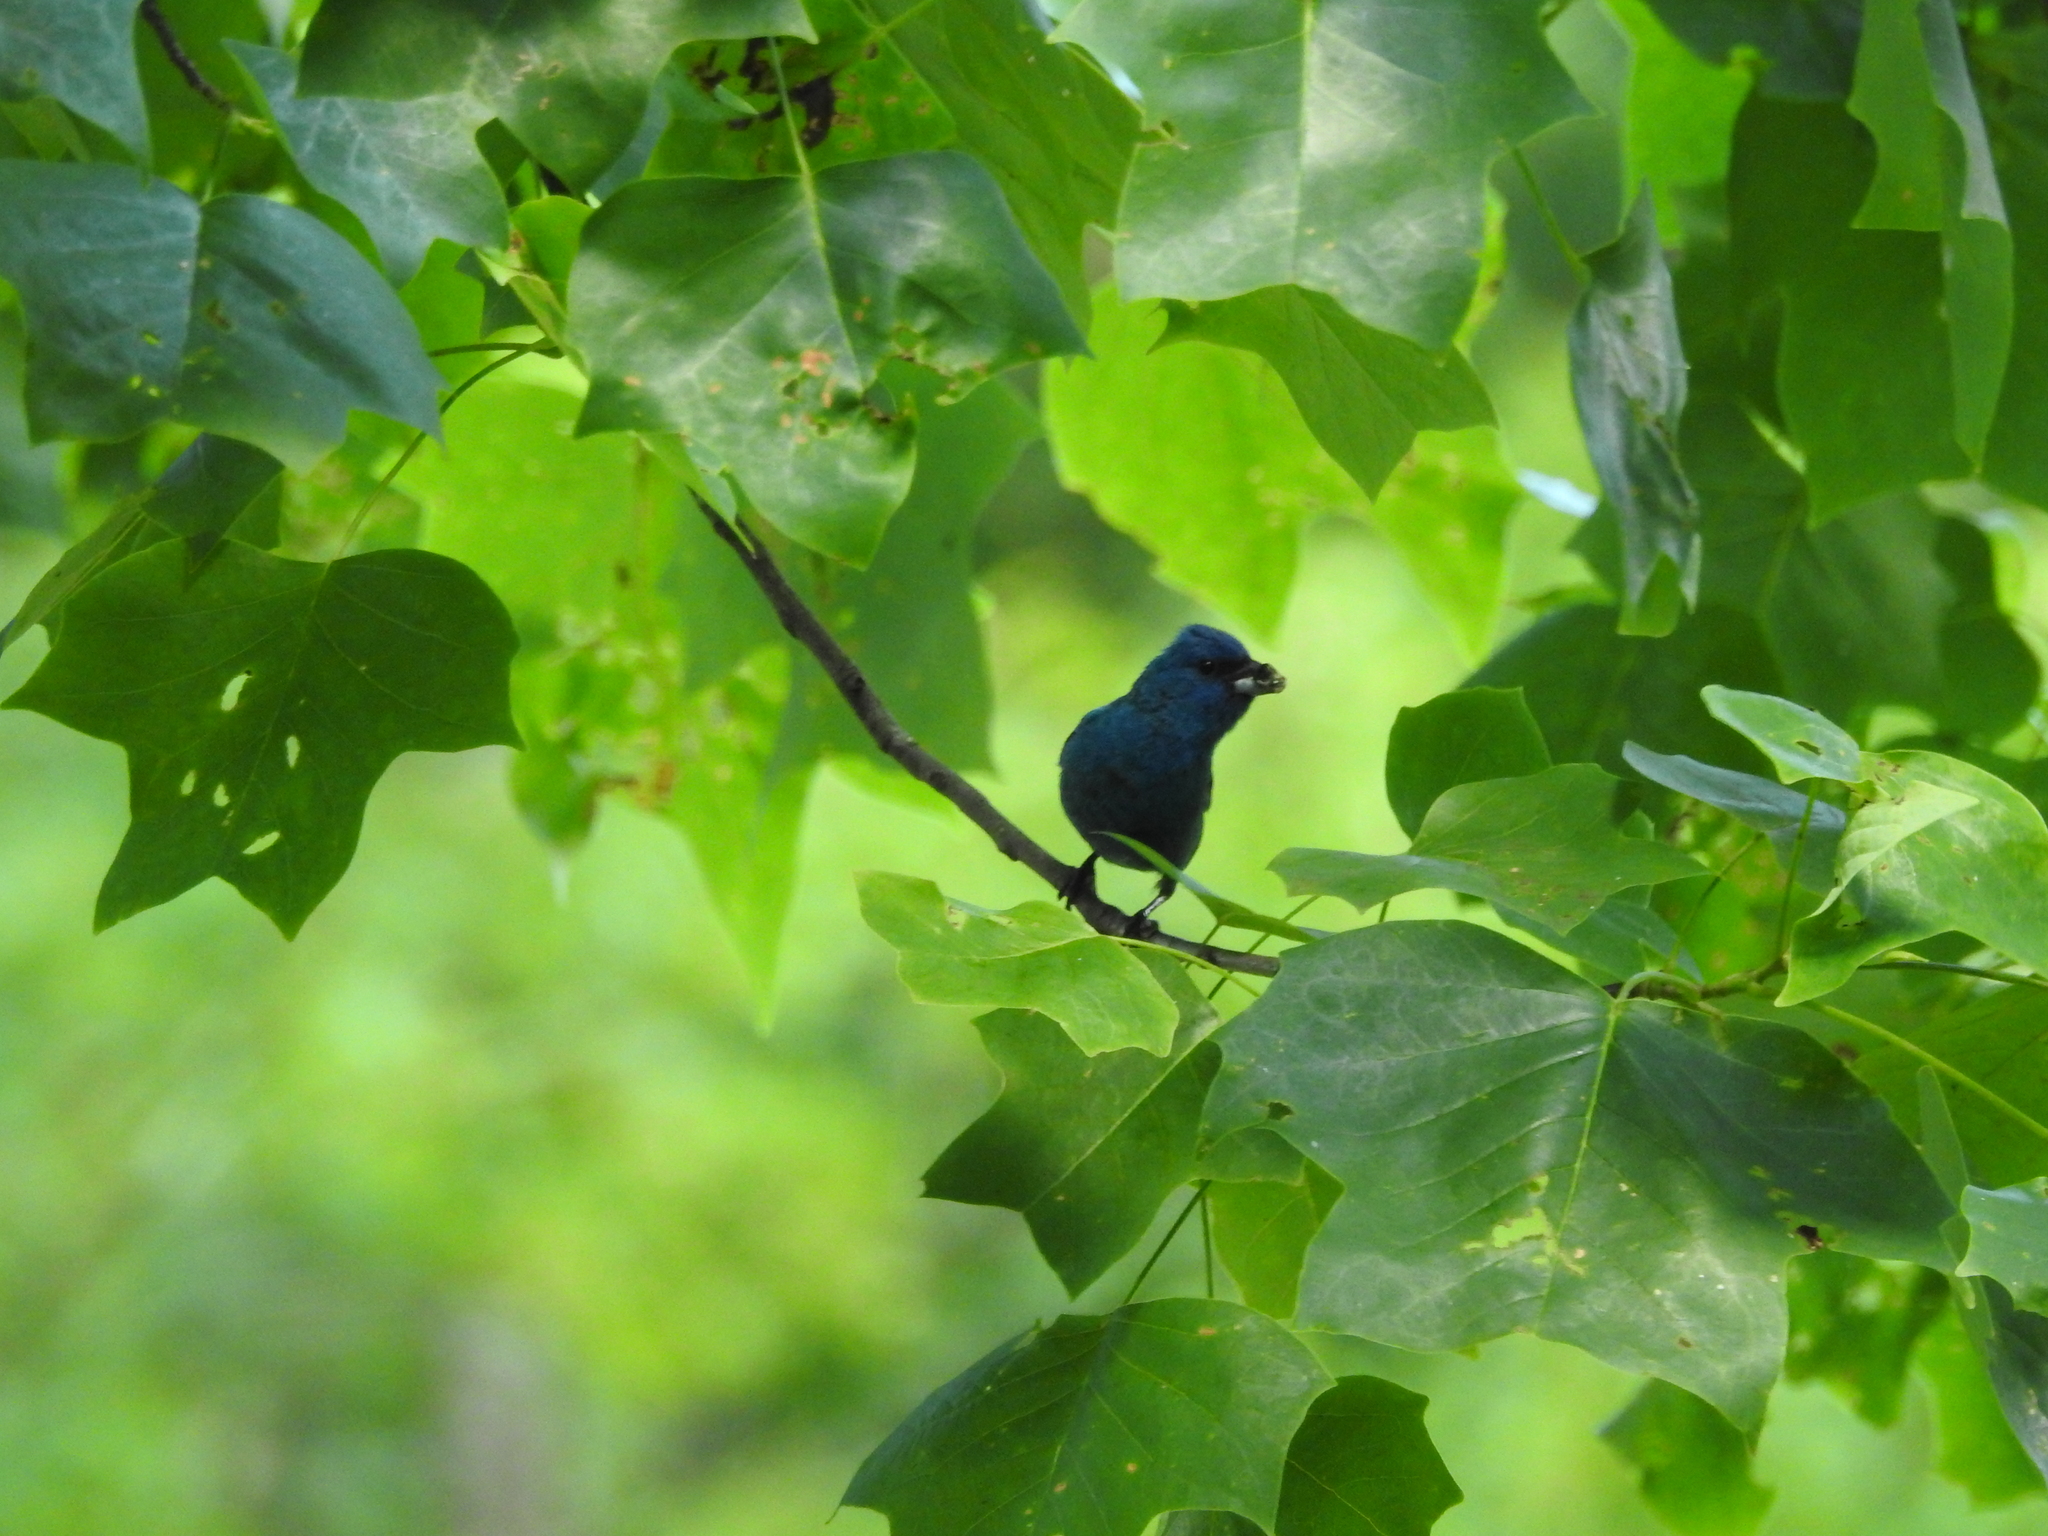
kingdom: Plantae
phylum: Tracheophyta
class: Magnoliopsida
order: Magnoliales
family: Magnoliaceae
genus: Liriodendron
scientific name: Liriodendron tulipifera
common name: Tulip tree
